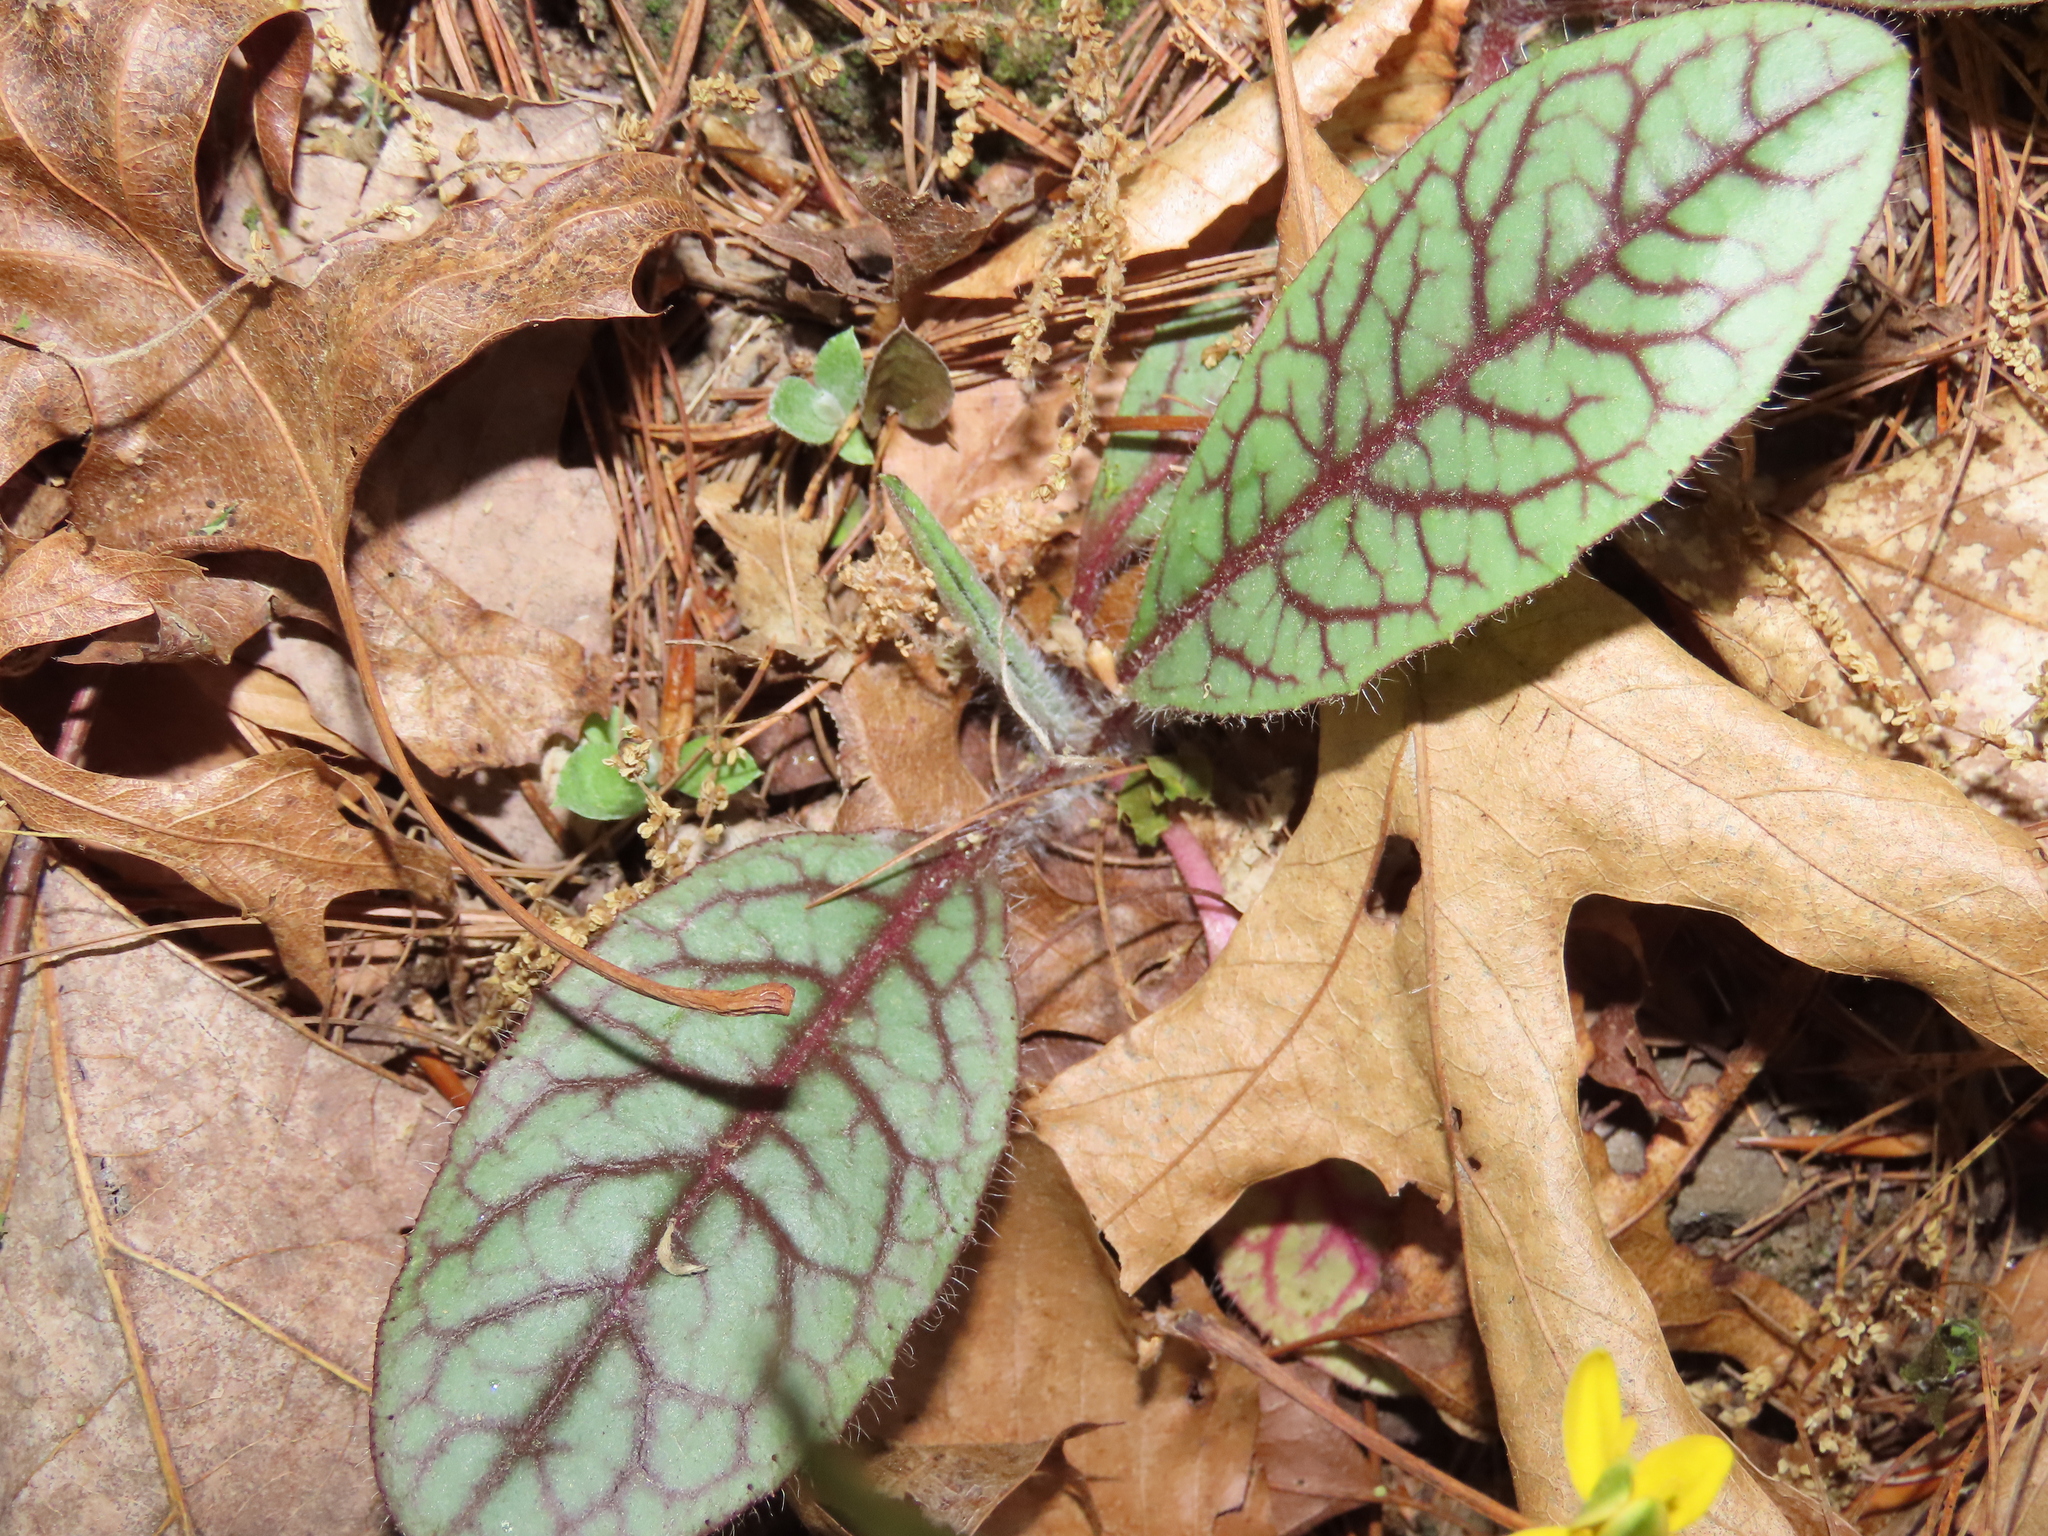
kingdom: Plantae
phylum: Tracheophyta
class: Magnoliopsida
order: Asterales
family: Asteraceae
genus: Hieracium
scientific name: Hieracium venosum
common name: Rattlesnake hawkweed
